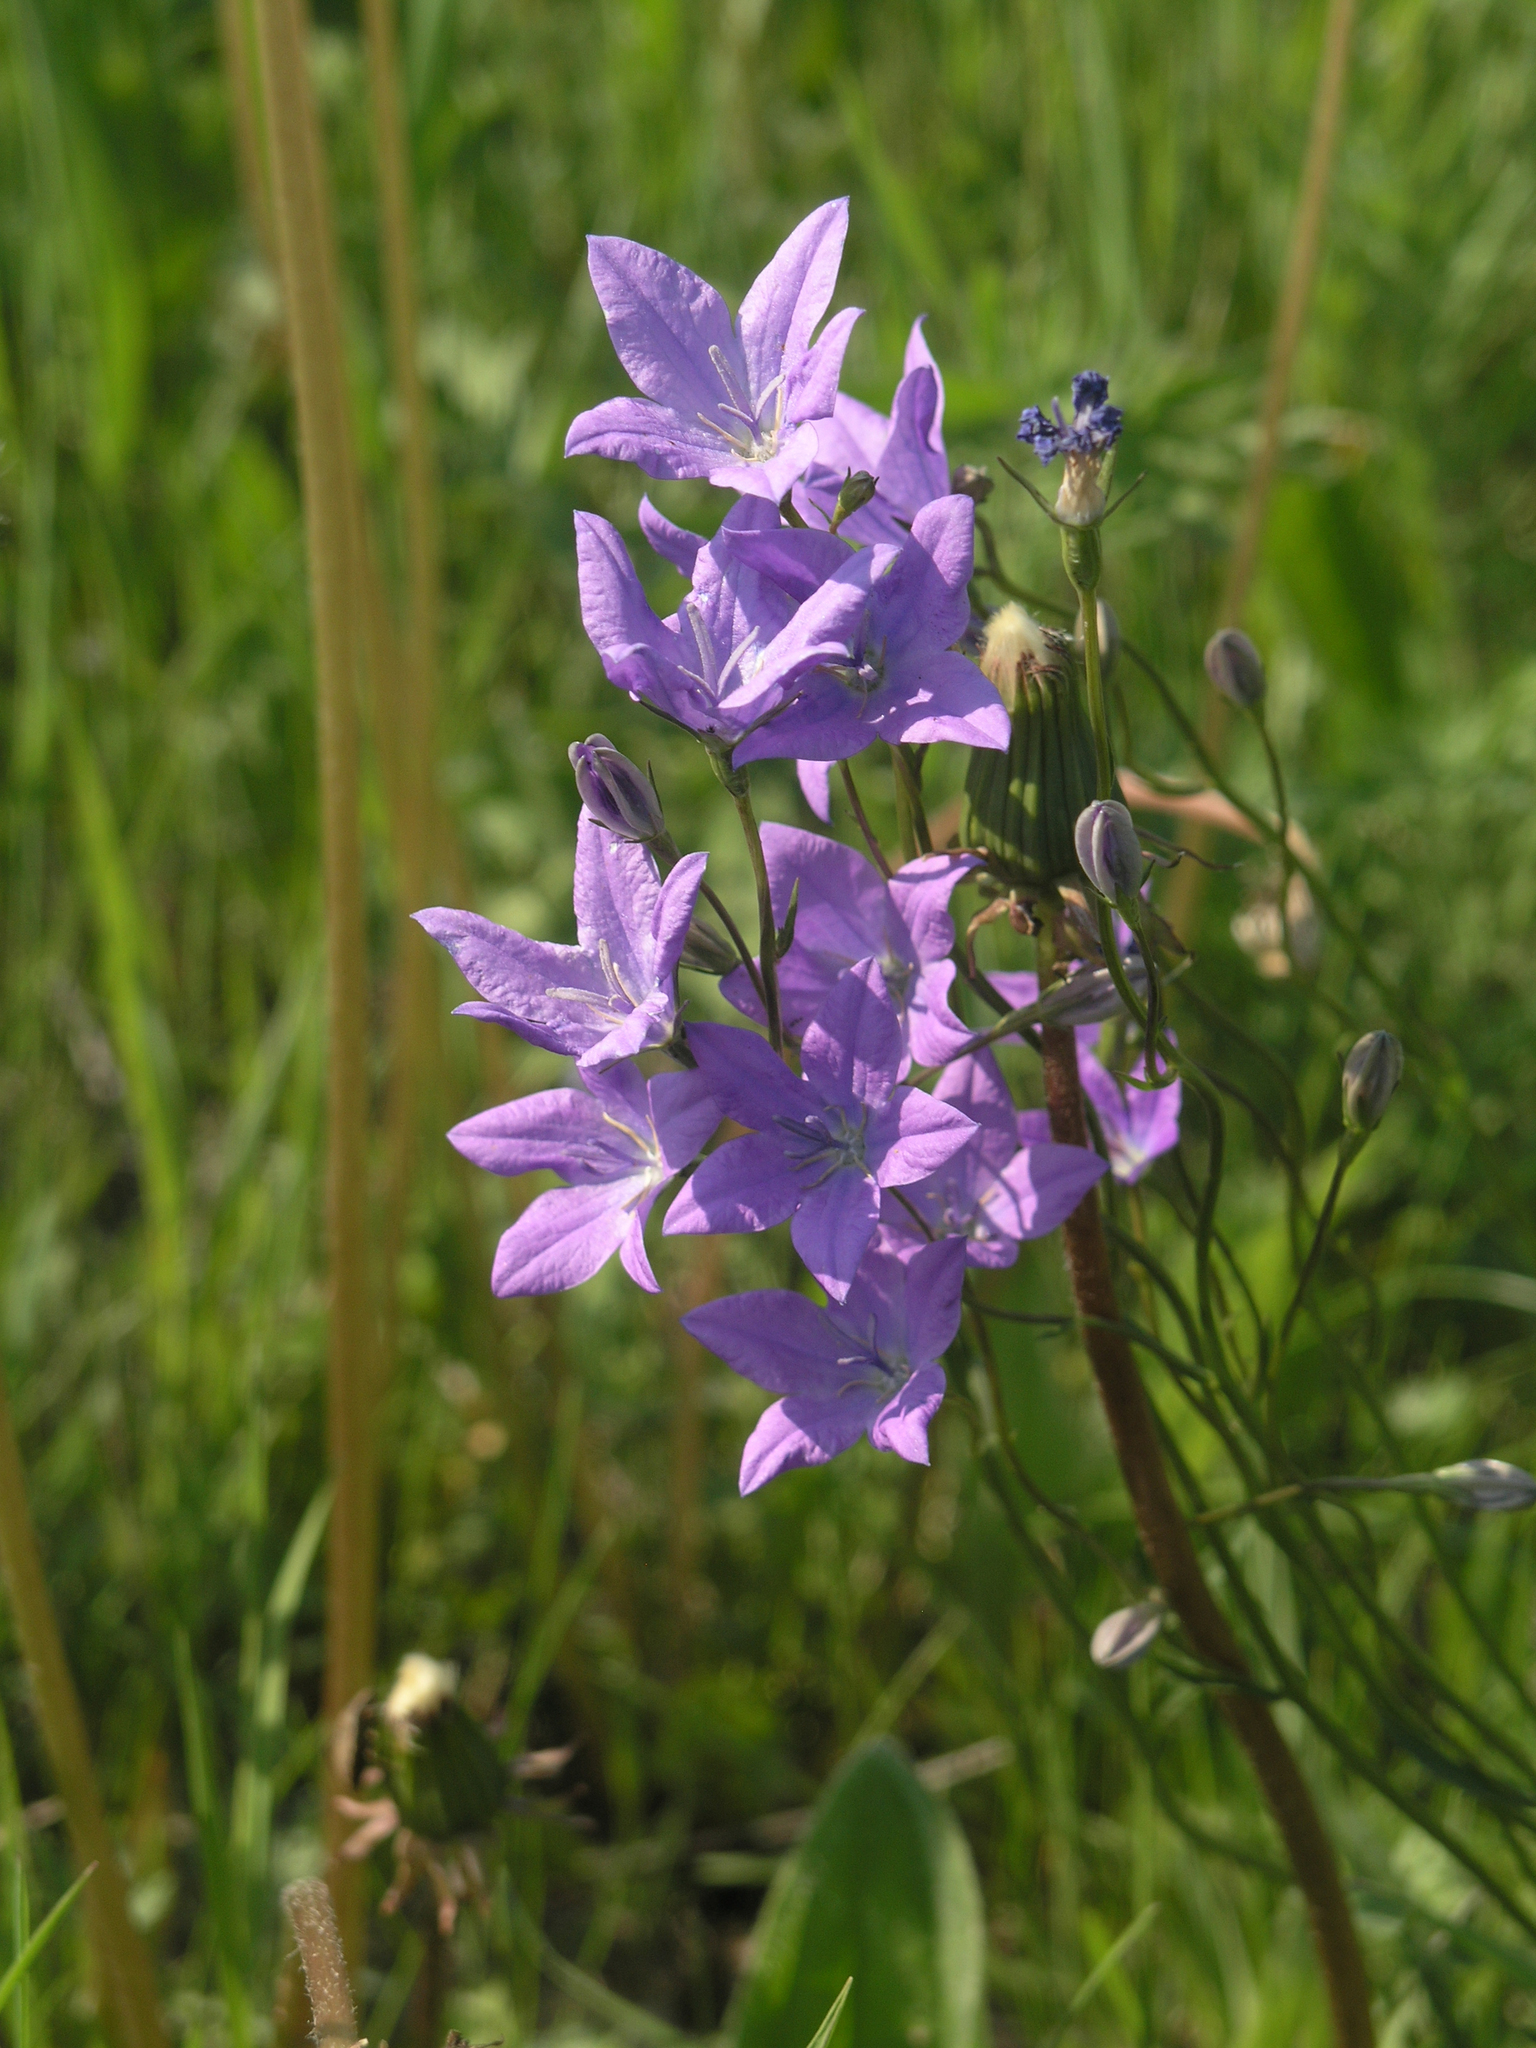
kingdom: Plantae
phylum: Tracheophyta
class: Magnoliopsida
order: Asterales
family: Campanulaceae
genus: Campanula
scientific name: Campanula stevenii
